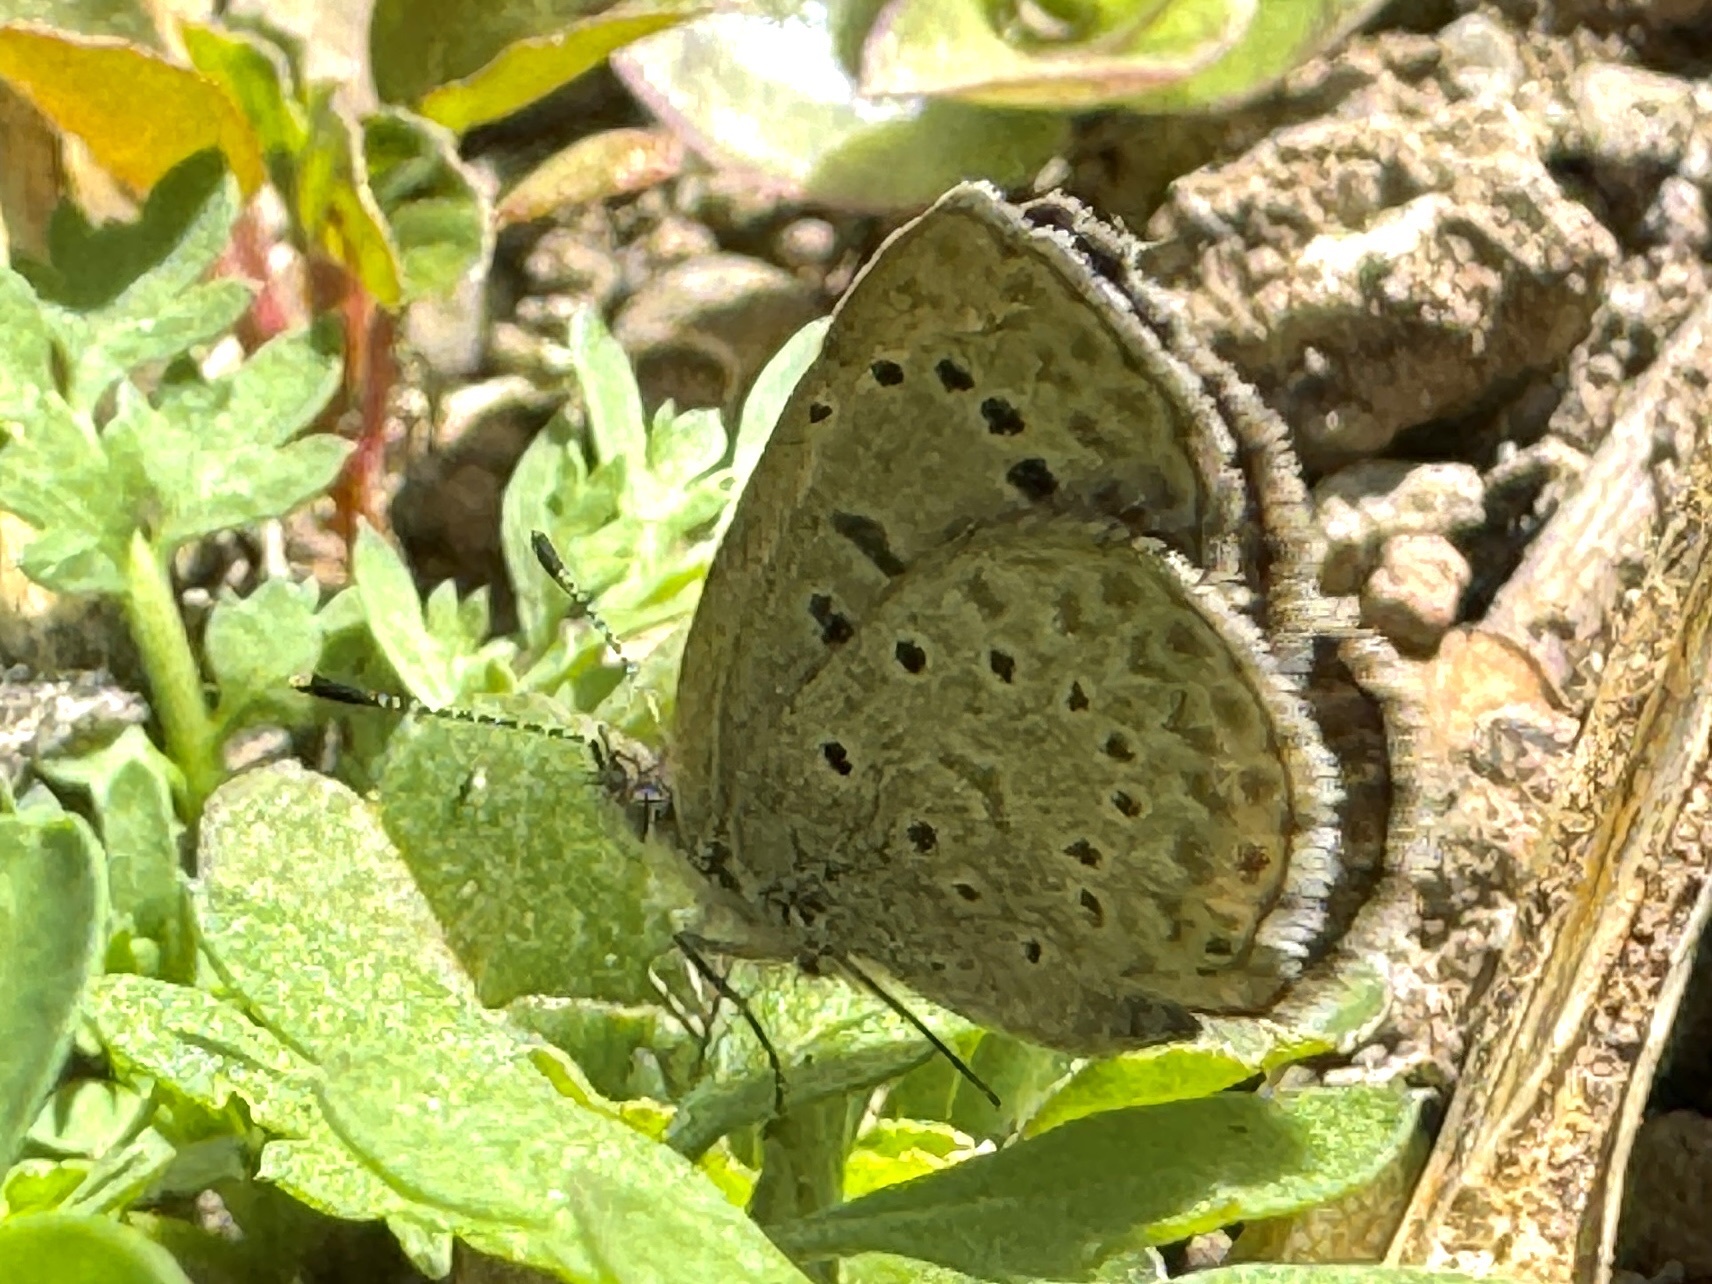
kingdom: Animalia
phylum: Arthropoda
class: Insecta
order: Lepidoptera
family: Lycaenidae
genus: Zizeeria
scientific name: Zizeeria knysna
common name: African grass blue
